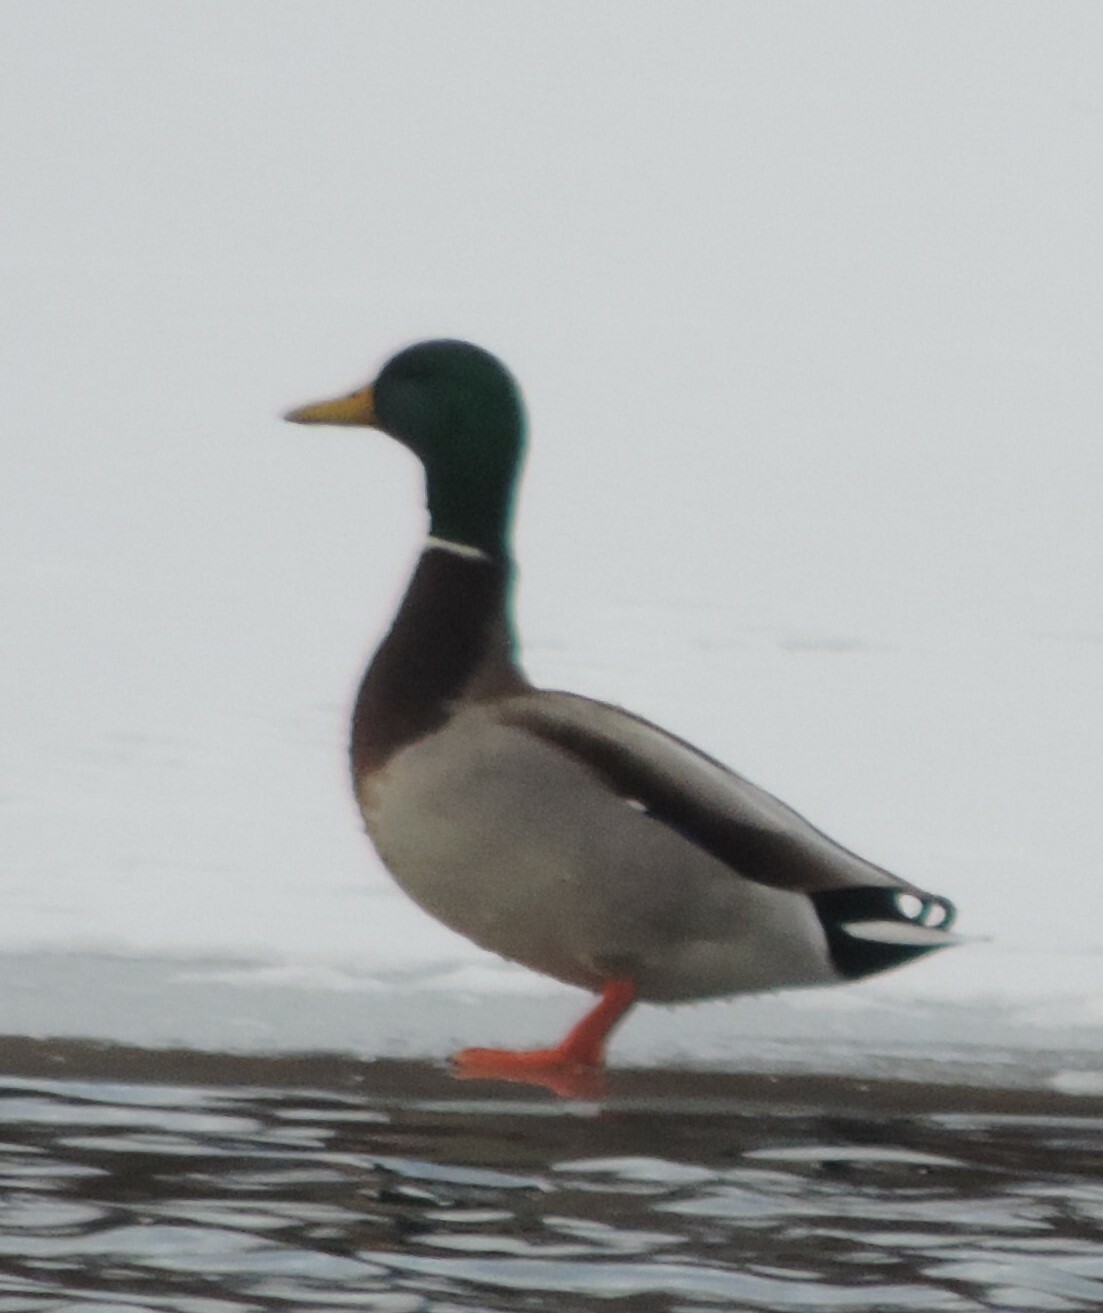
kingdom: Animalia
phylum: Chordata
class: Aves
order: Anseriformes
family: Anatidae
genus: Anas
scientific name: Anas platyrhynchos
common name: Mallard
